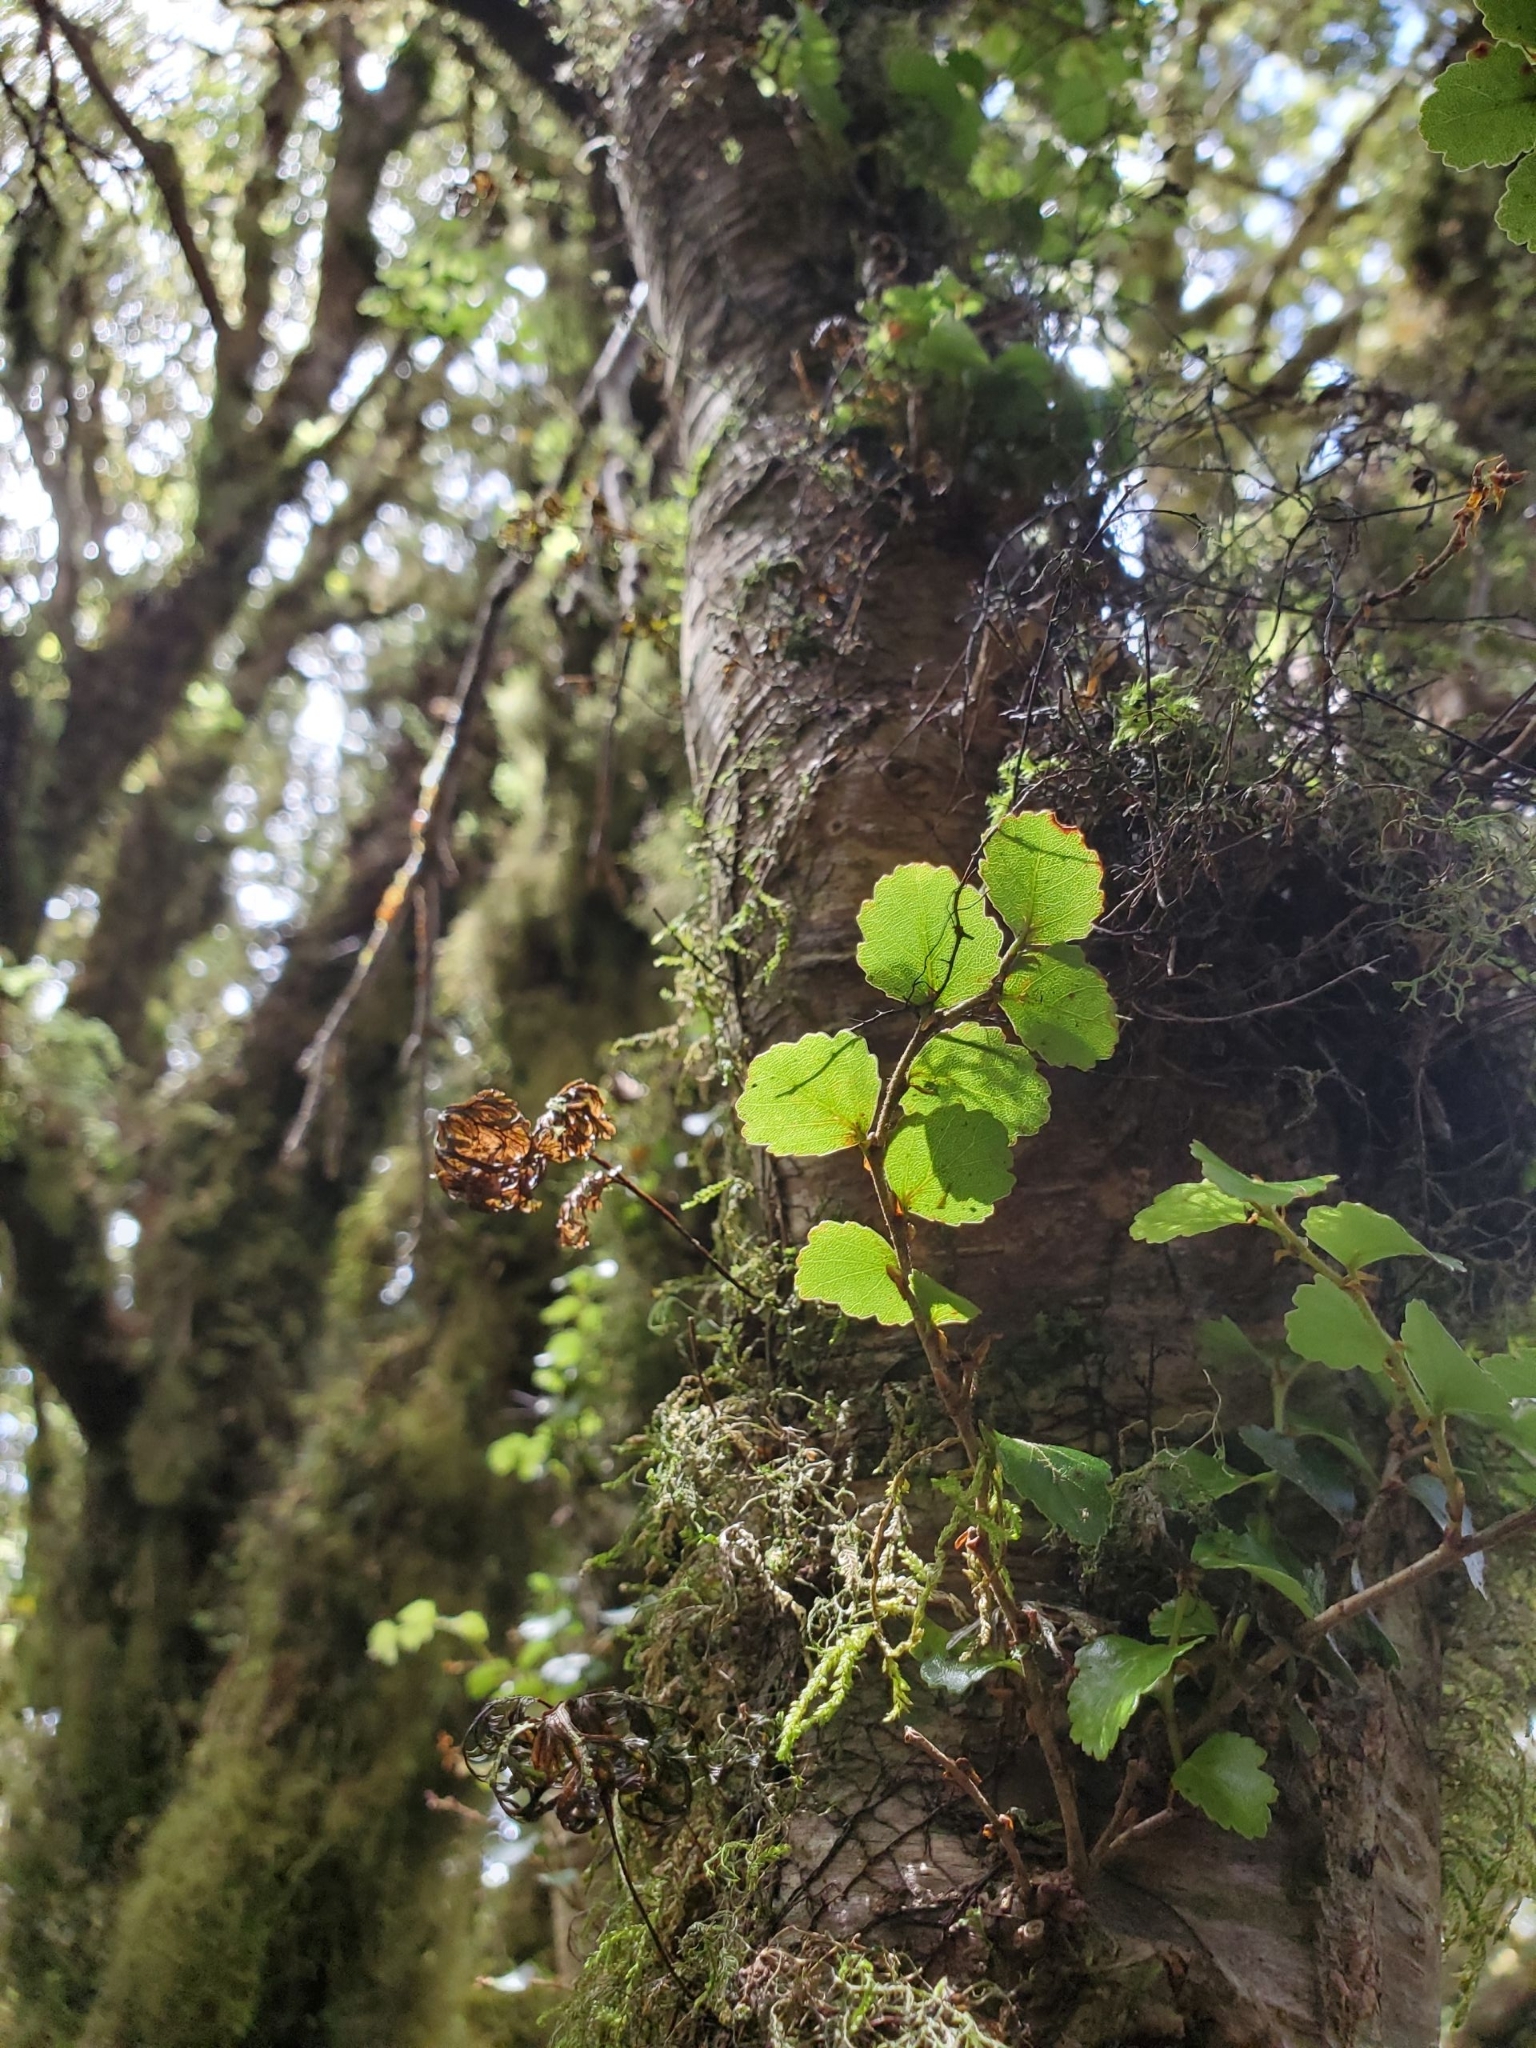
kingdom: Plantae
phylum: Tracheophyta
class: Magnoliopsida
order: Fagales
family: Nothofagaceae
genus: Nothofagus
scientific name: Nothofagus menziesii
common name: Silver beech
